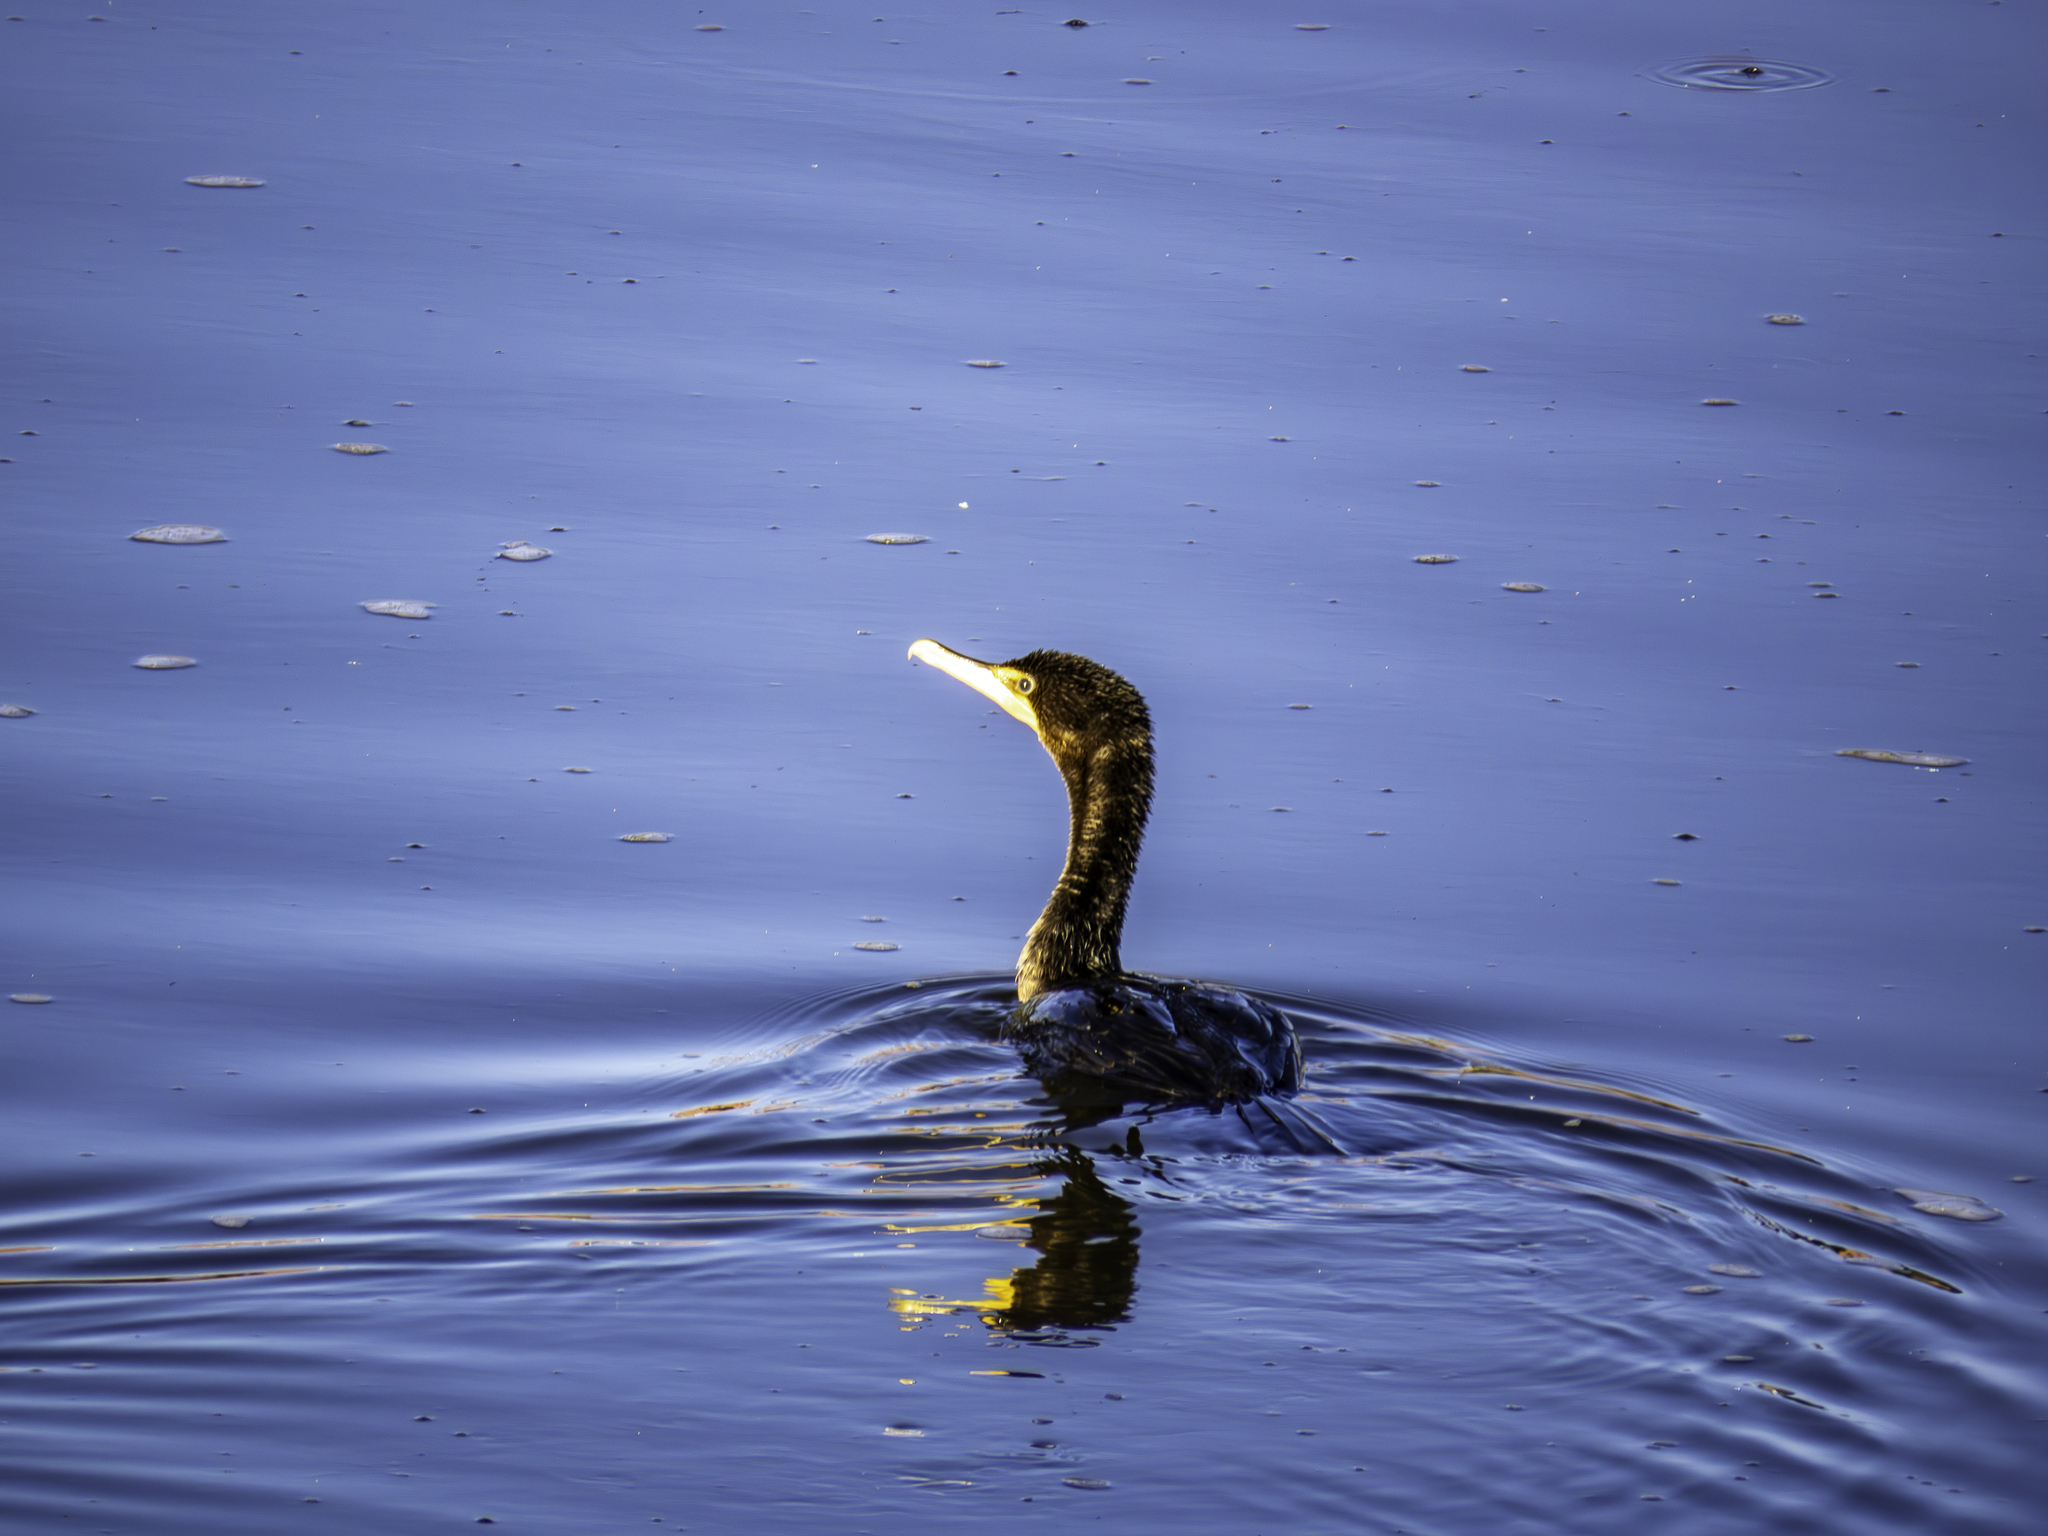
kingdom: Animalia
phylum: Chordata
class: Aves
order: Suliformes
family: Phalacrocoracidae
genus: Phalacrocorax
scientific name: Phalacrocorax auritus
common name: Double-crested cormorant
